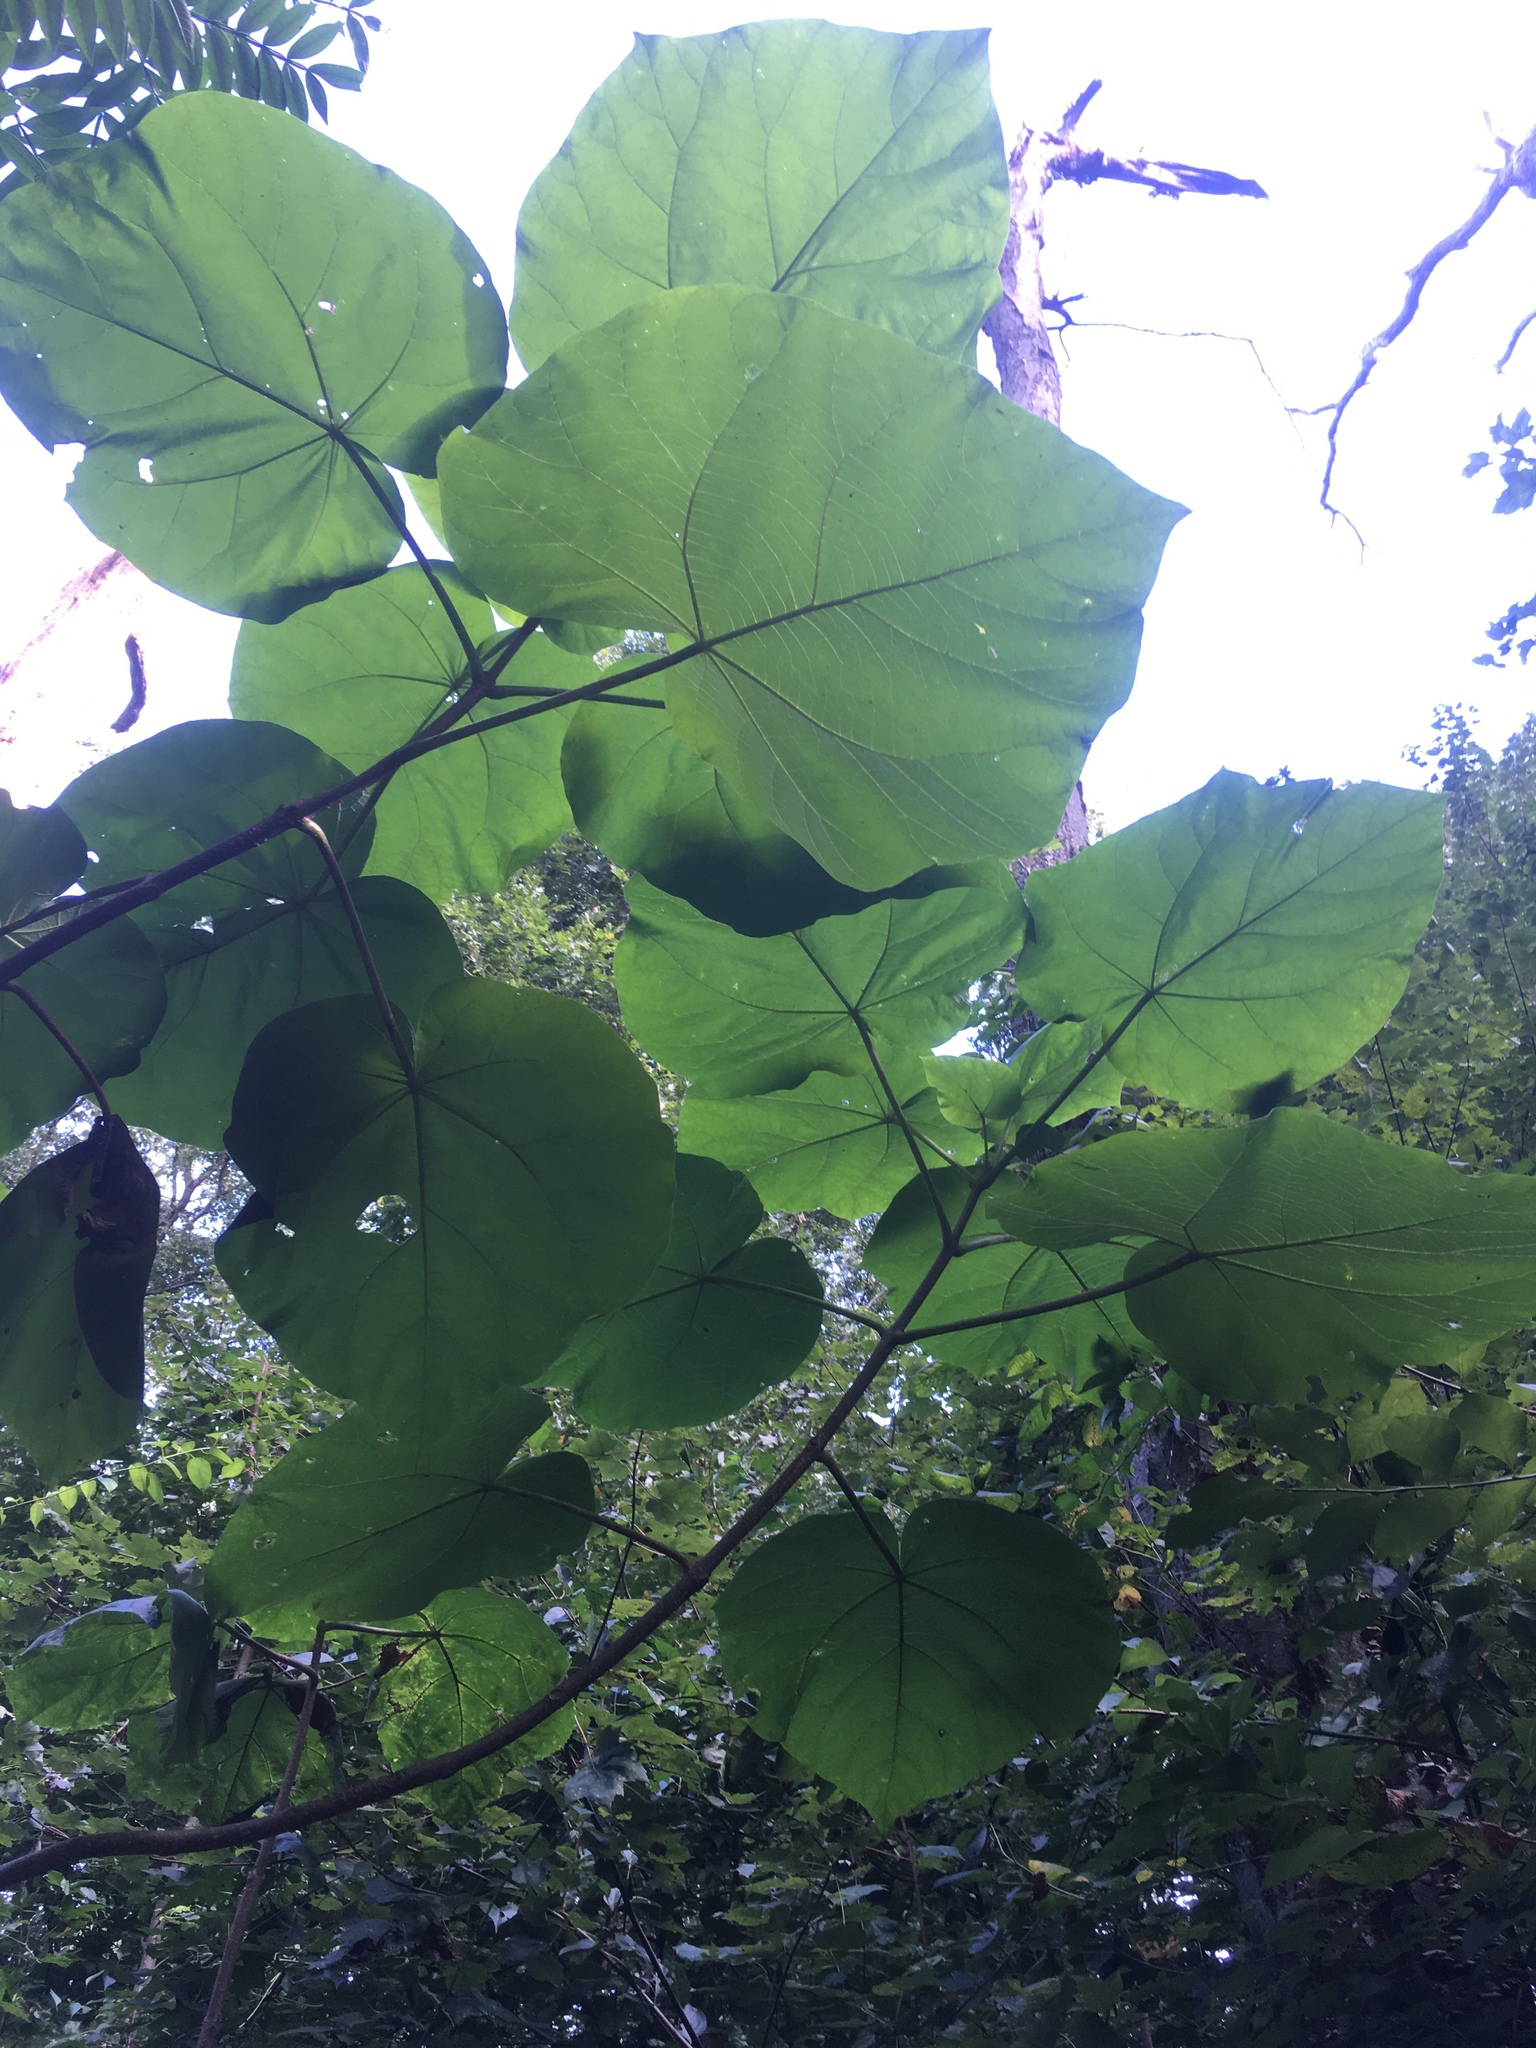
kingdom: Plantae
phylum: Tracheophyta
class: Magnoliopsida
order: Lamiales
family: Paulowniaceae
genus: Paulownia
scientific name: Paulownia tomentosa
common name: Foxglove-tree
